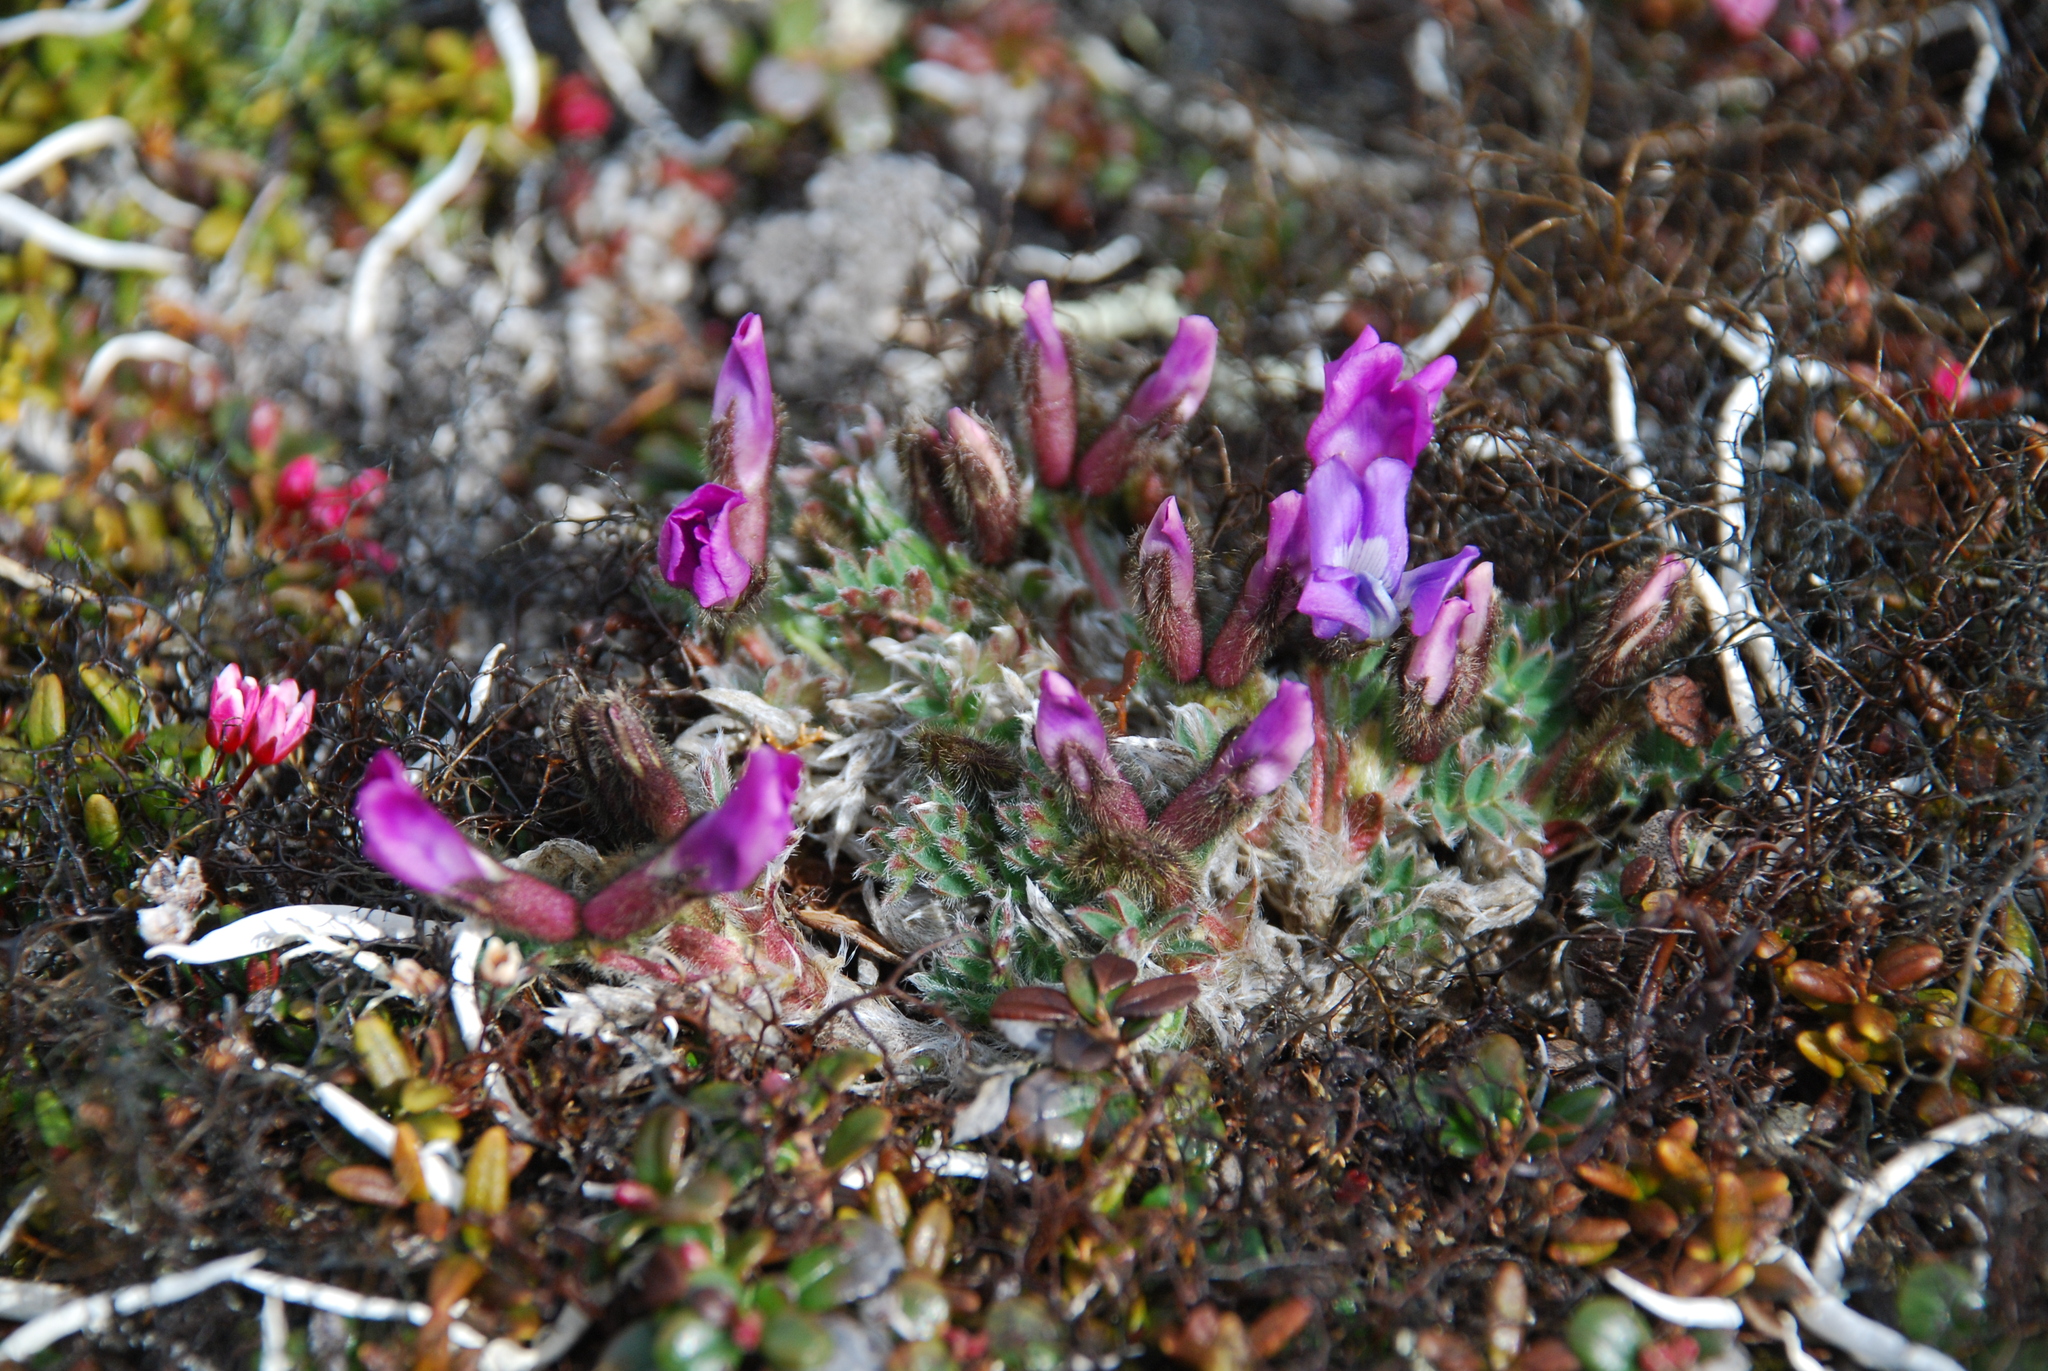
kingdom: Plantae
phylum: Tracheophyta
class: Magnoliopsida
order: Fabales
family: Fabaceae
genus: Oxytropis
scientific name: Oxytropis nigrescens
